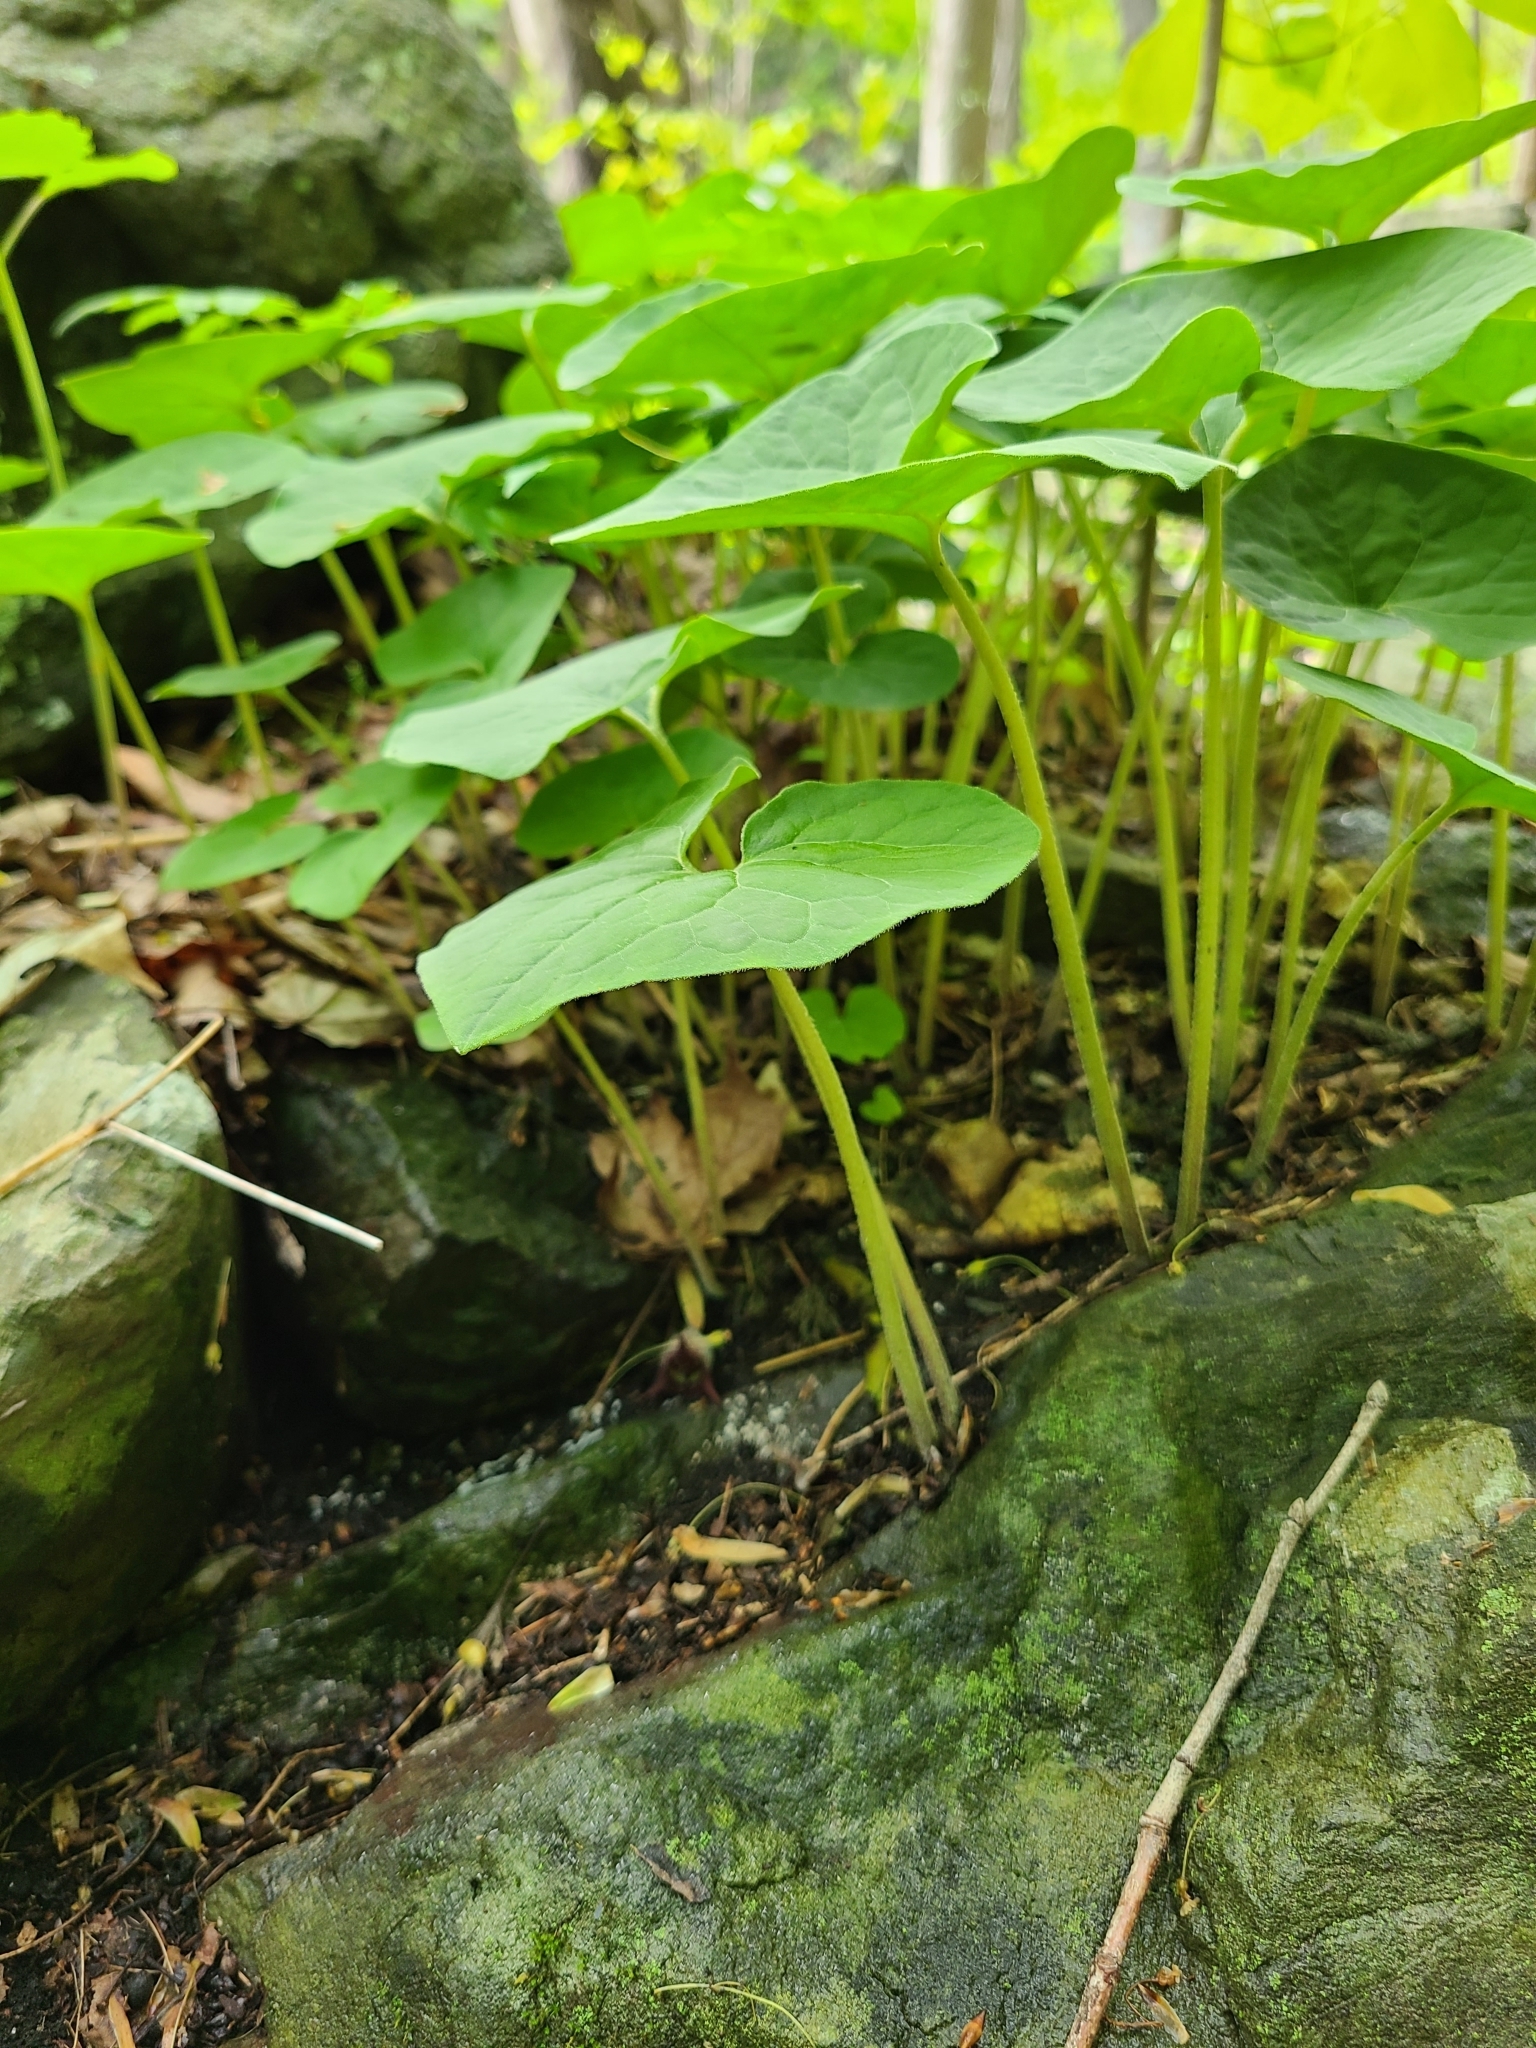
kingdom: Plantae
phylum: Tracheophyta
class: Magnoliopsida
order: Piperales
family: Aristolochiaceae
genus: Asarum
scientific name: Asarum canadense
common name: Wild ginger
